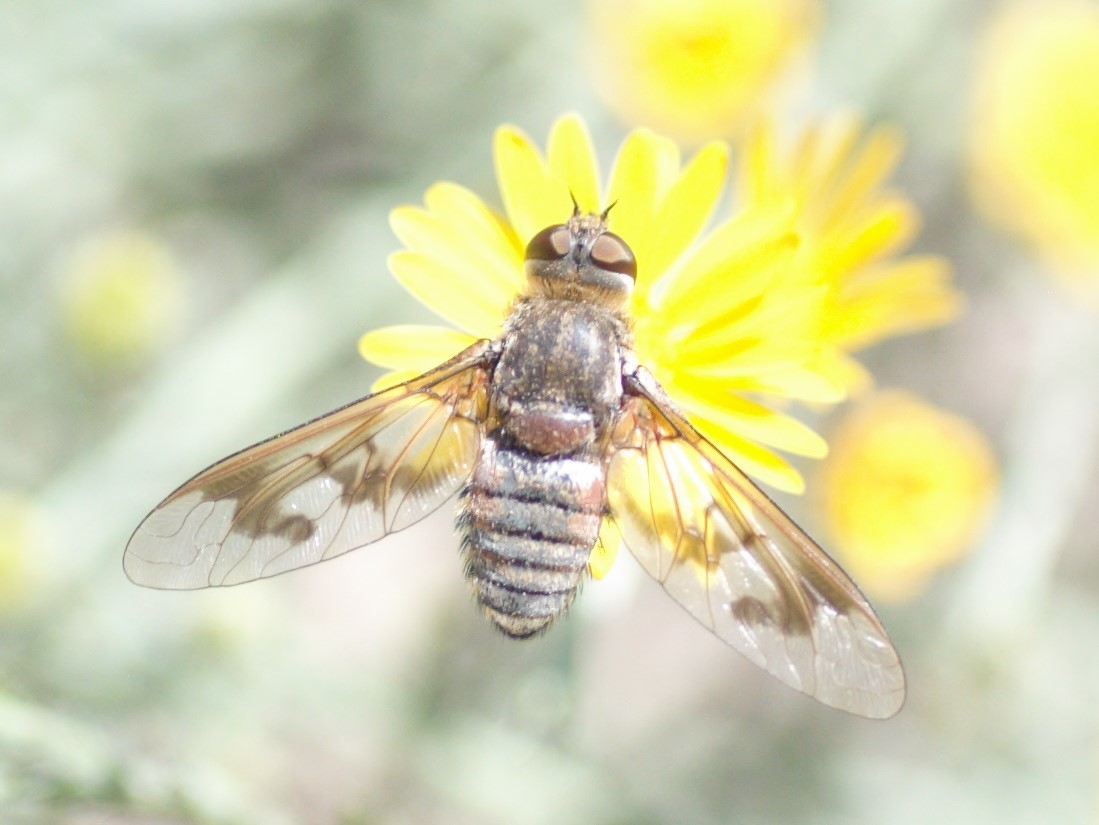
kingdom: Animalia
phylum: Arthropoda
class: Insecta
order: Diptera
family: Bombyliidae
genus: Exoprosopa
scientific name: Exoprosopa
